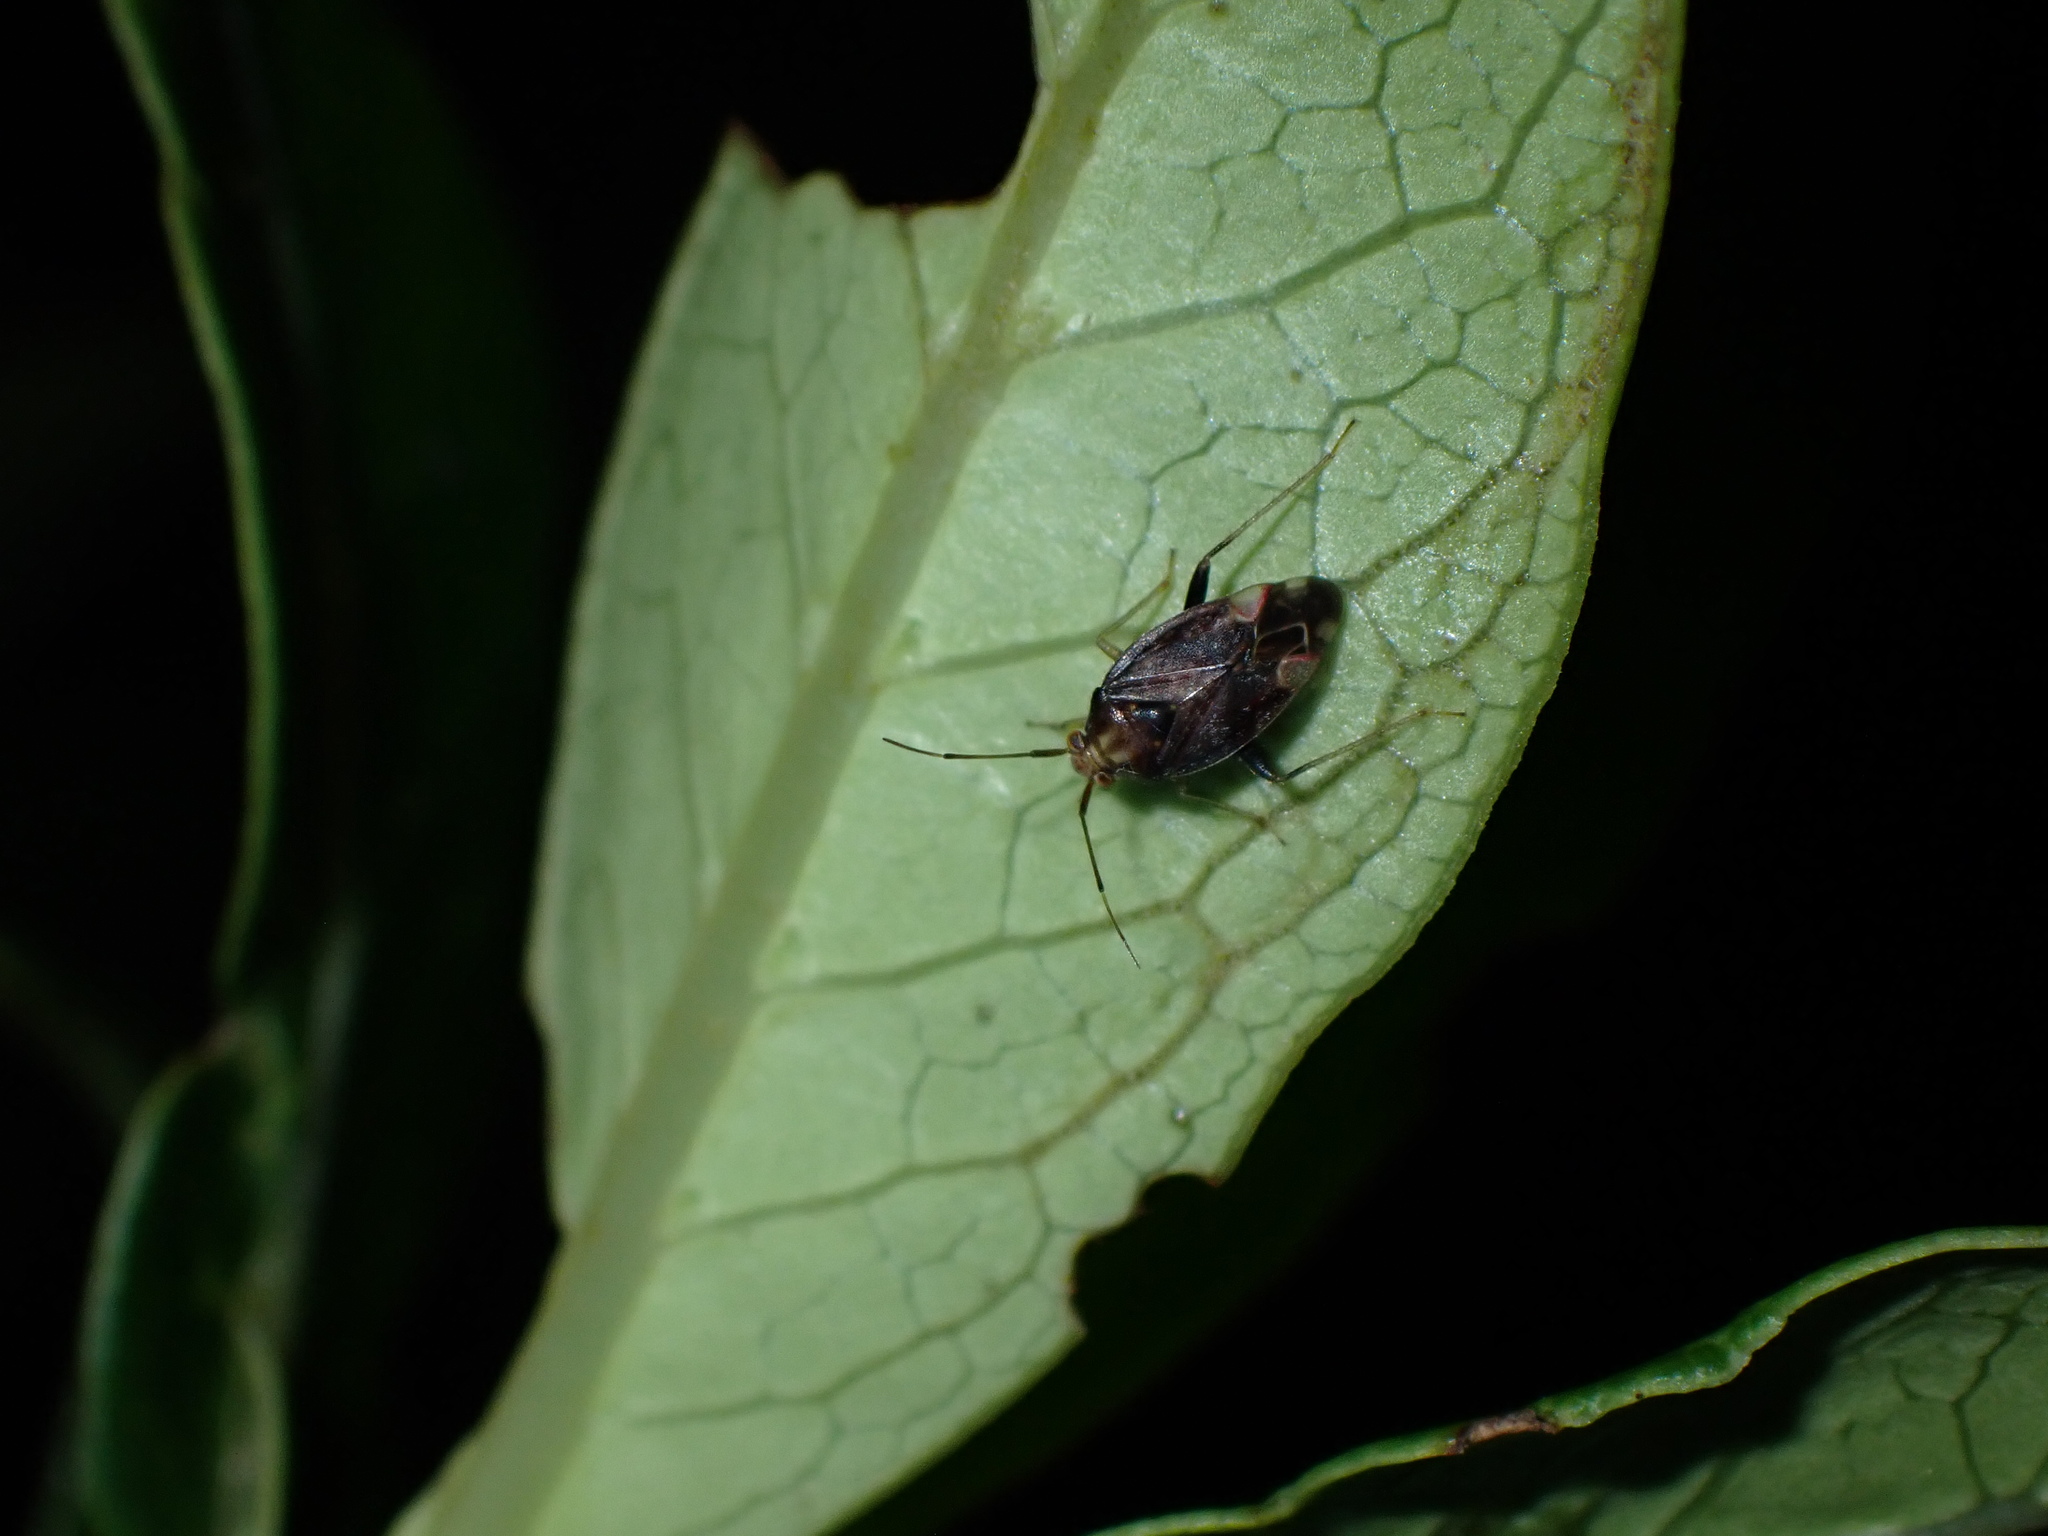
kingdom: Animalia
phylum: Arthropoda
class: Insecta
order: Hemiptera
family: Miridae
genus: Chinamiris
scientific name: Chinamiris indeclivis
